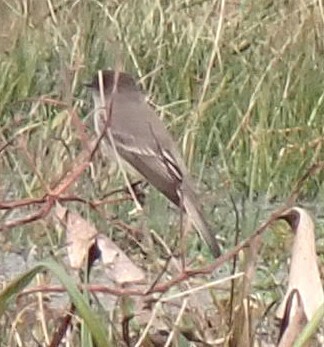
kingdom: Animalia
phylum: Chordata
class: Aves
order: Passeriformes
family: Tyrannidae
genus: Sayornis
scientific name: Sayornis phoebe
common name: Eastern phoebe
